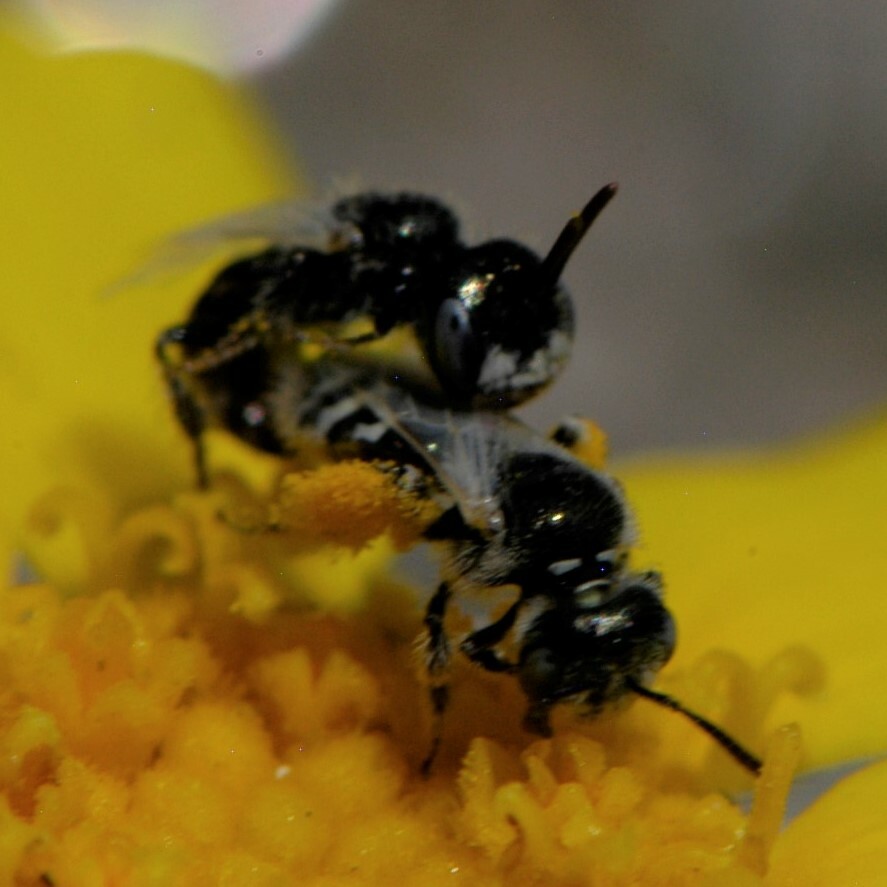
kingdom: Animalia
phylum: Arthropoda
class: Insecta
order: Hymenoptera
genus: Pentaperdita
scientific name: Pentaperdita
